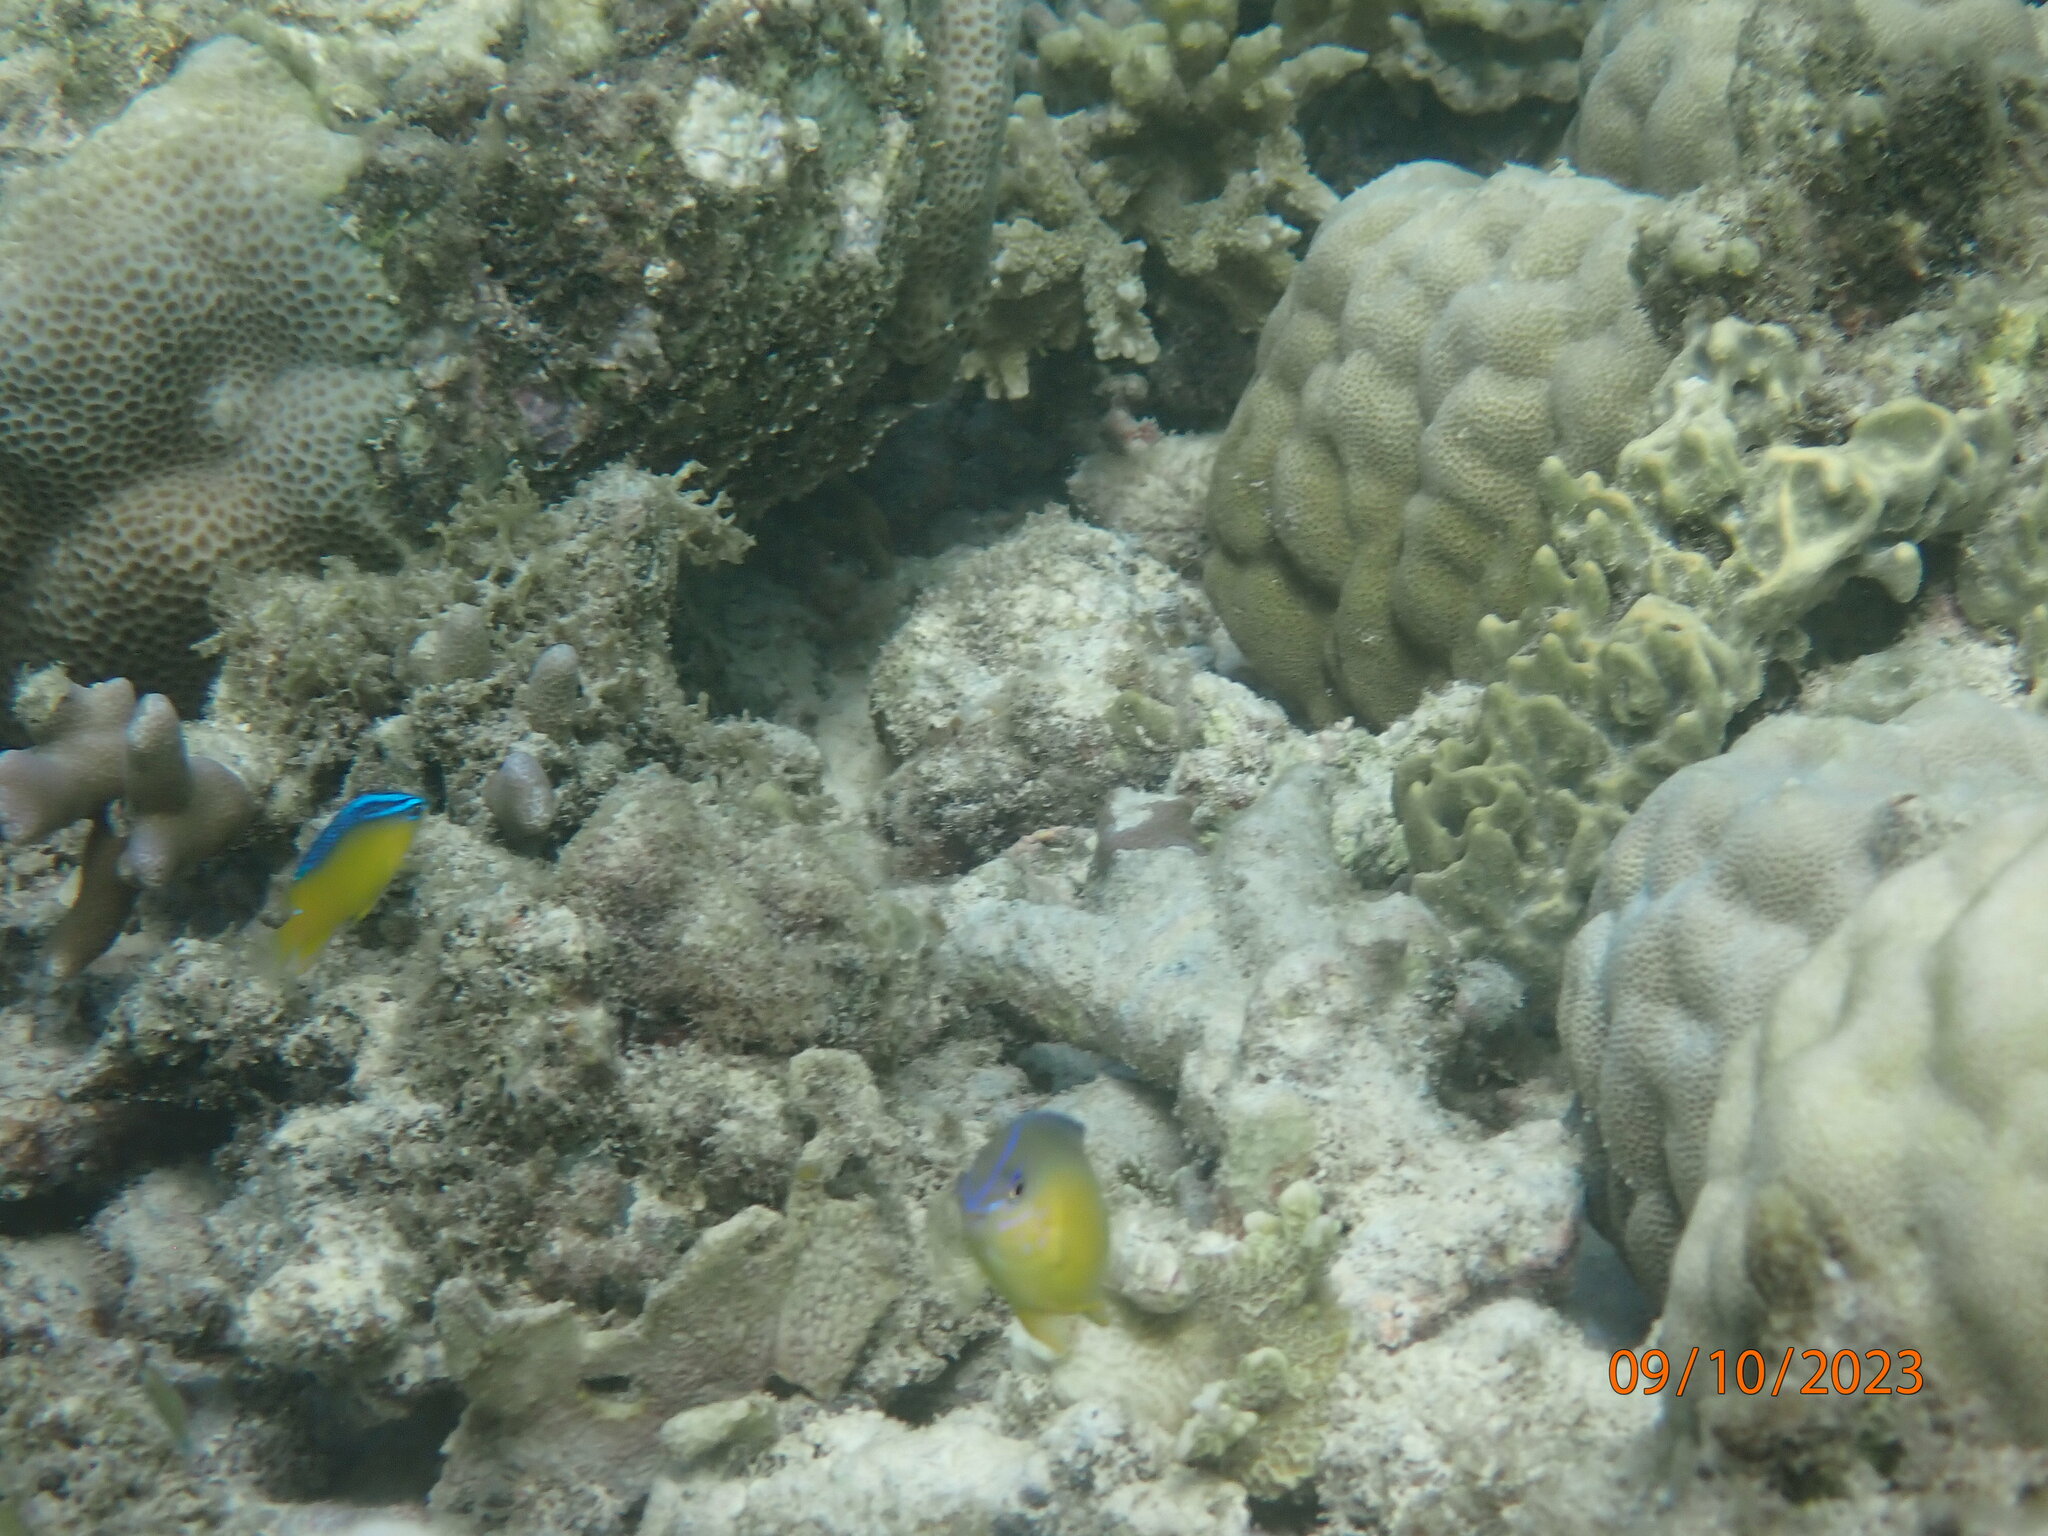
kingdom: Animalia
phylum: Chordata
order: Perciformes
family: Pomacentridae
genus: Pomacentrus
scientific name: Pomacentrus simsiang
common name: Blueback damsel
